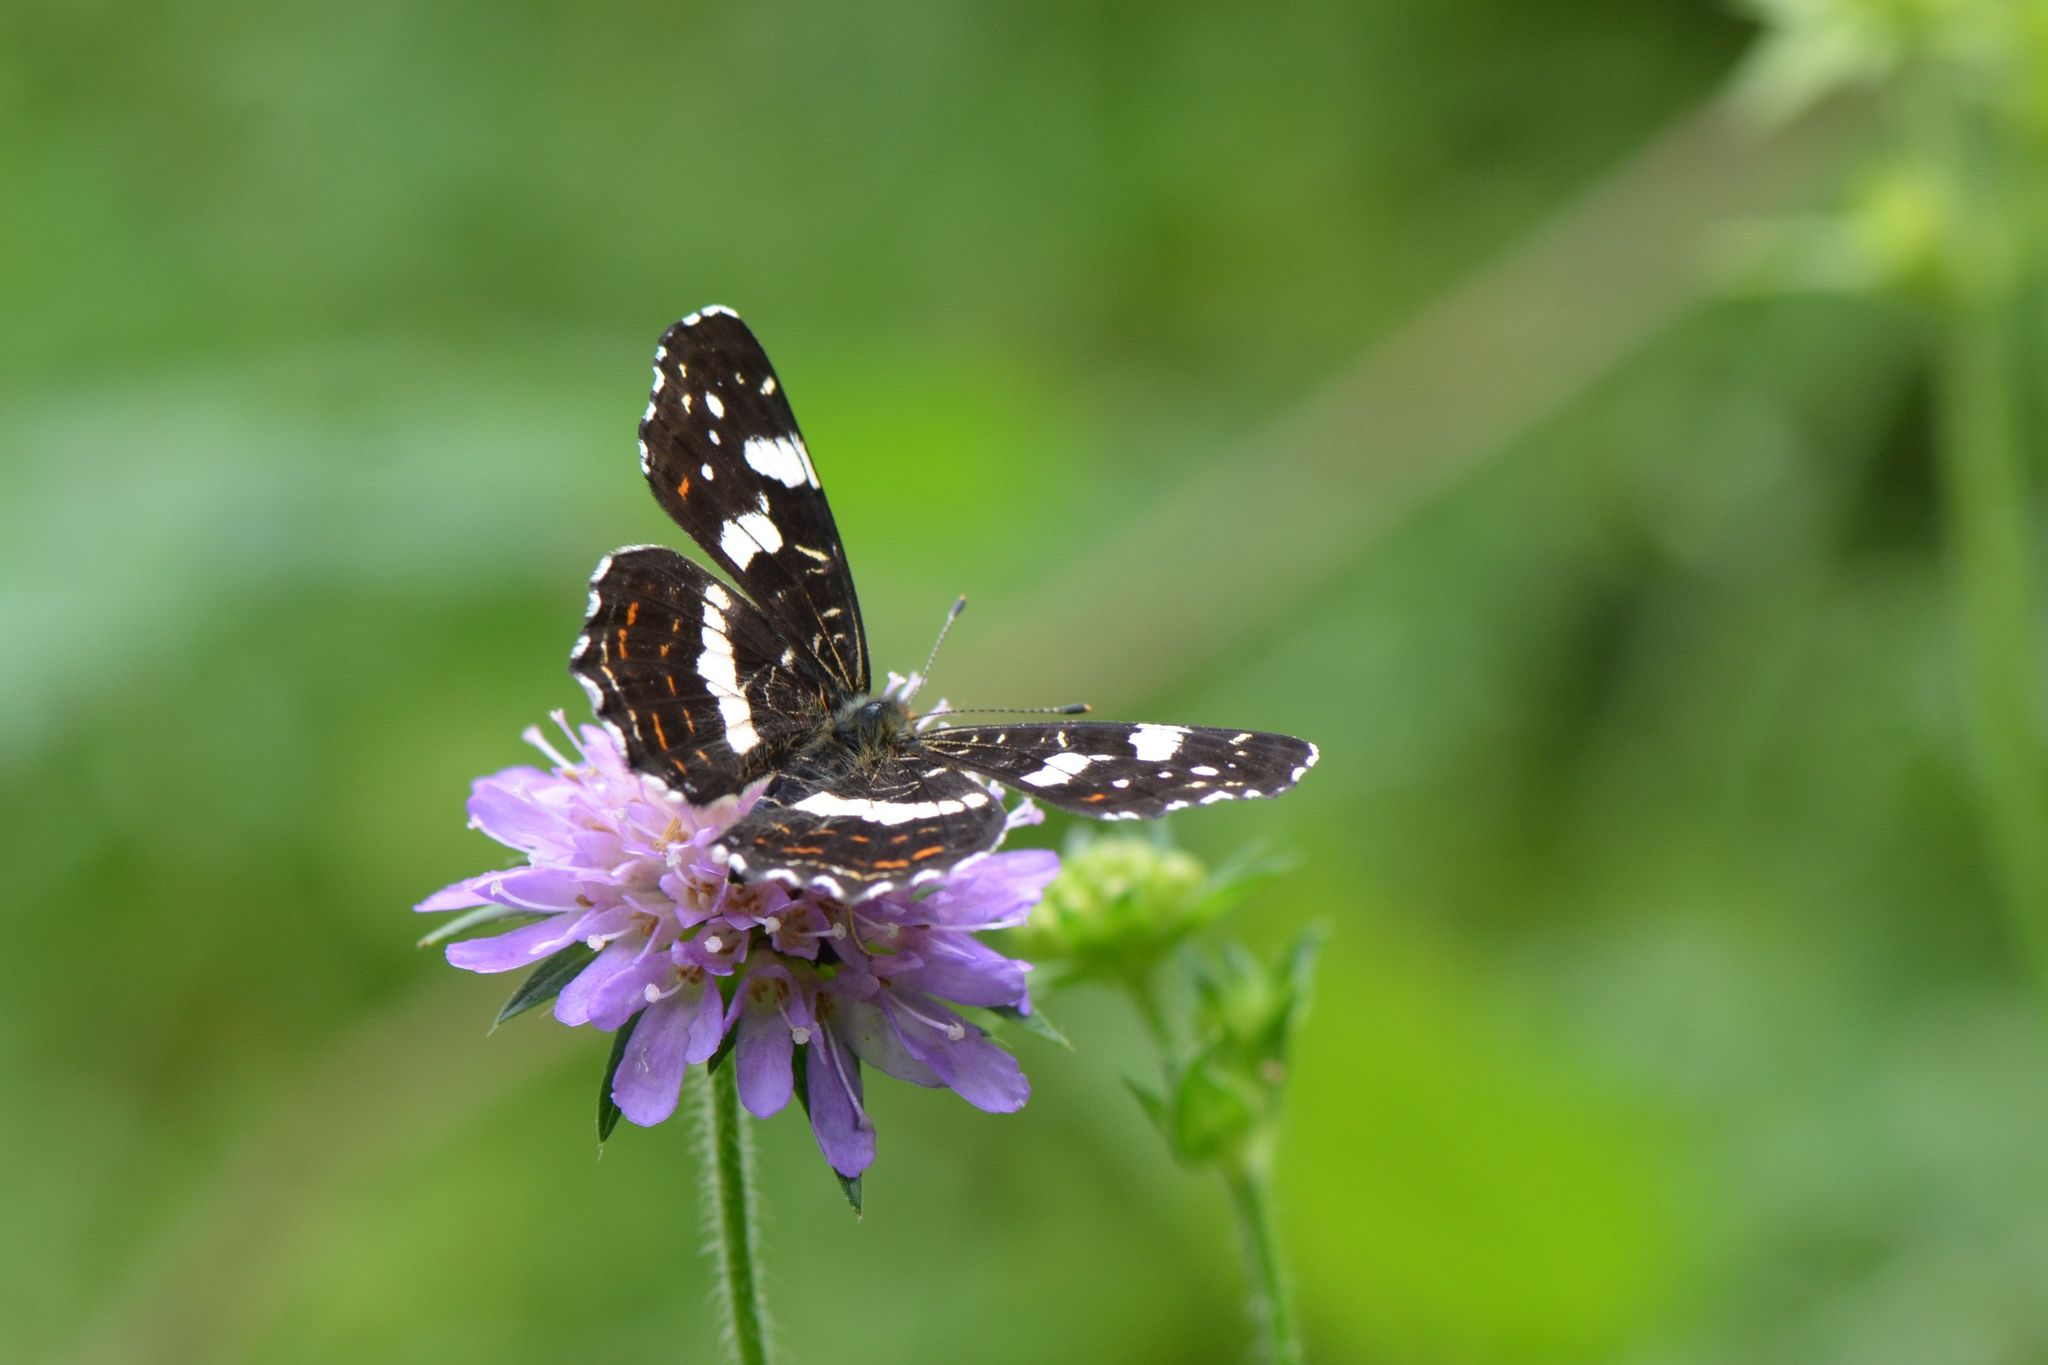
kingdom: Animalia
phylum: Arthropoda
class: Insecta
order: Lepidoptera
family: Nymphalidae
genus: Araschnia
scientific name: Araschnia levana
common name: Map butterfly
